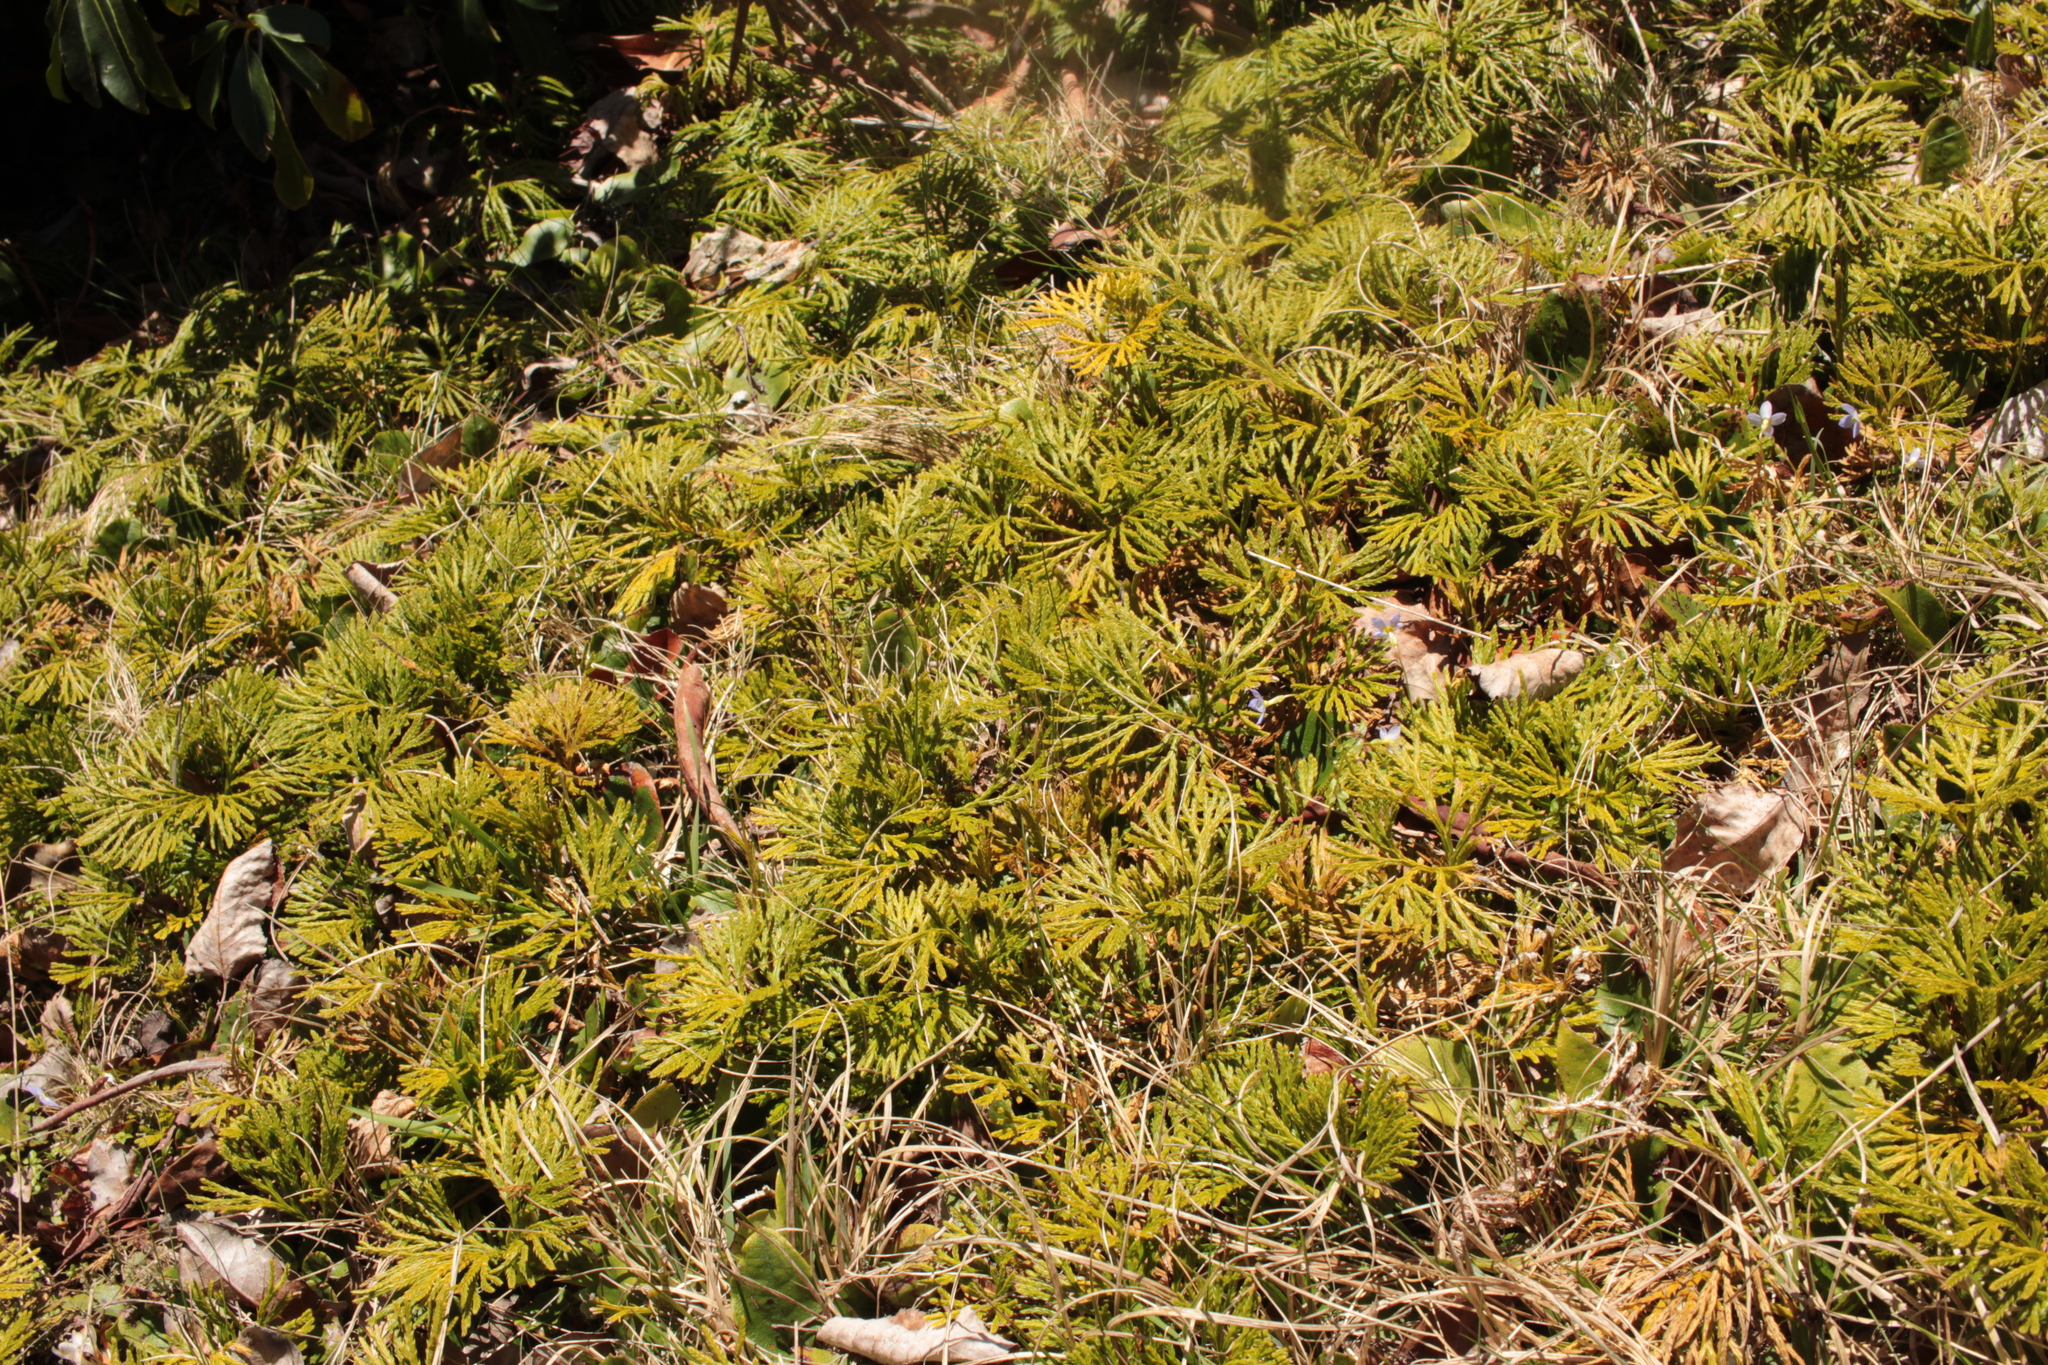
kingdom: Plantae
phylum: Tracheophyta
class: Lycopodiopsida
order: Lycopodiales
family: Lycopodiaceae
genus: Diphasiastrum
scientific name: Diphasiastrum digitatum
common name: Southern running-pine
